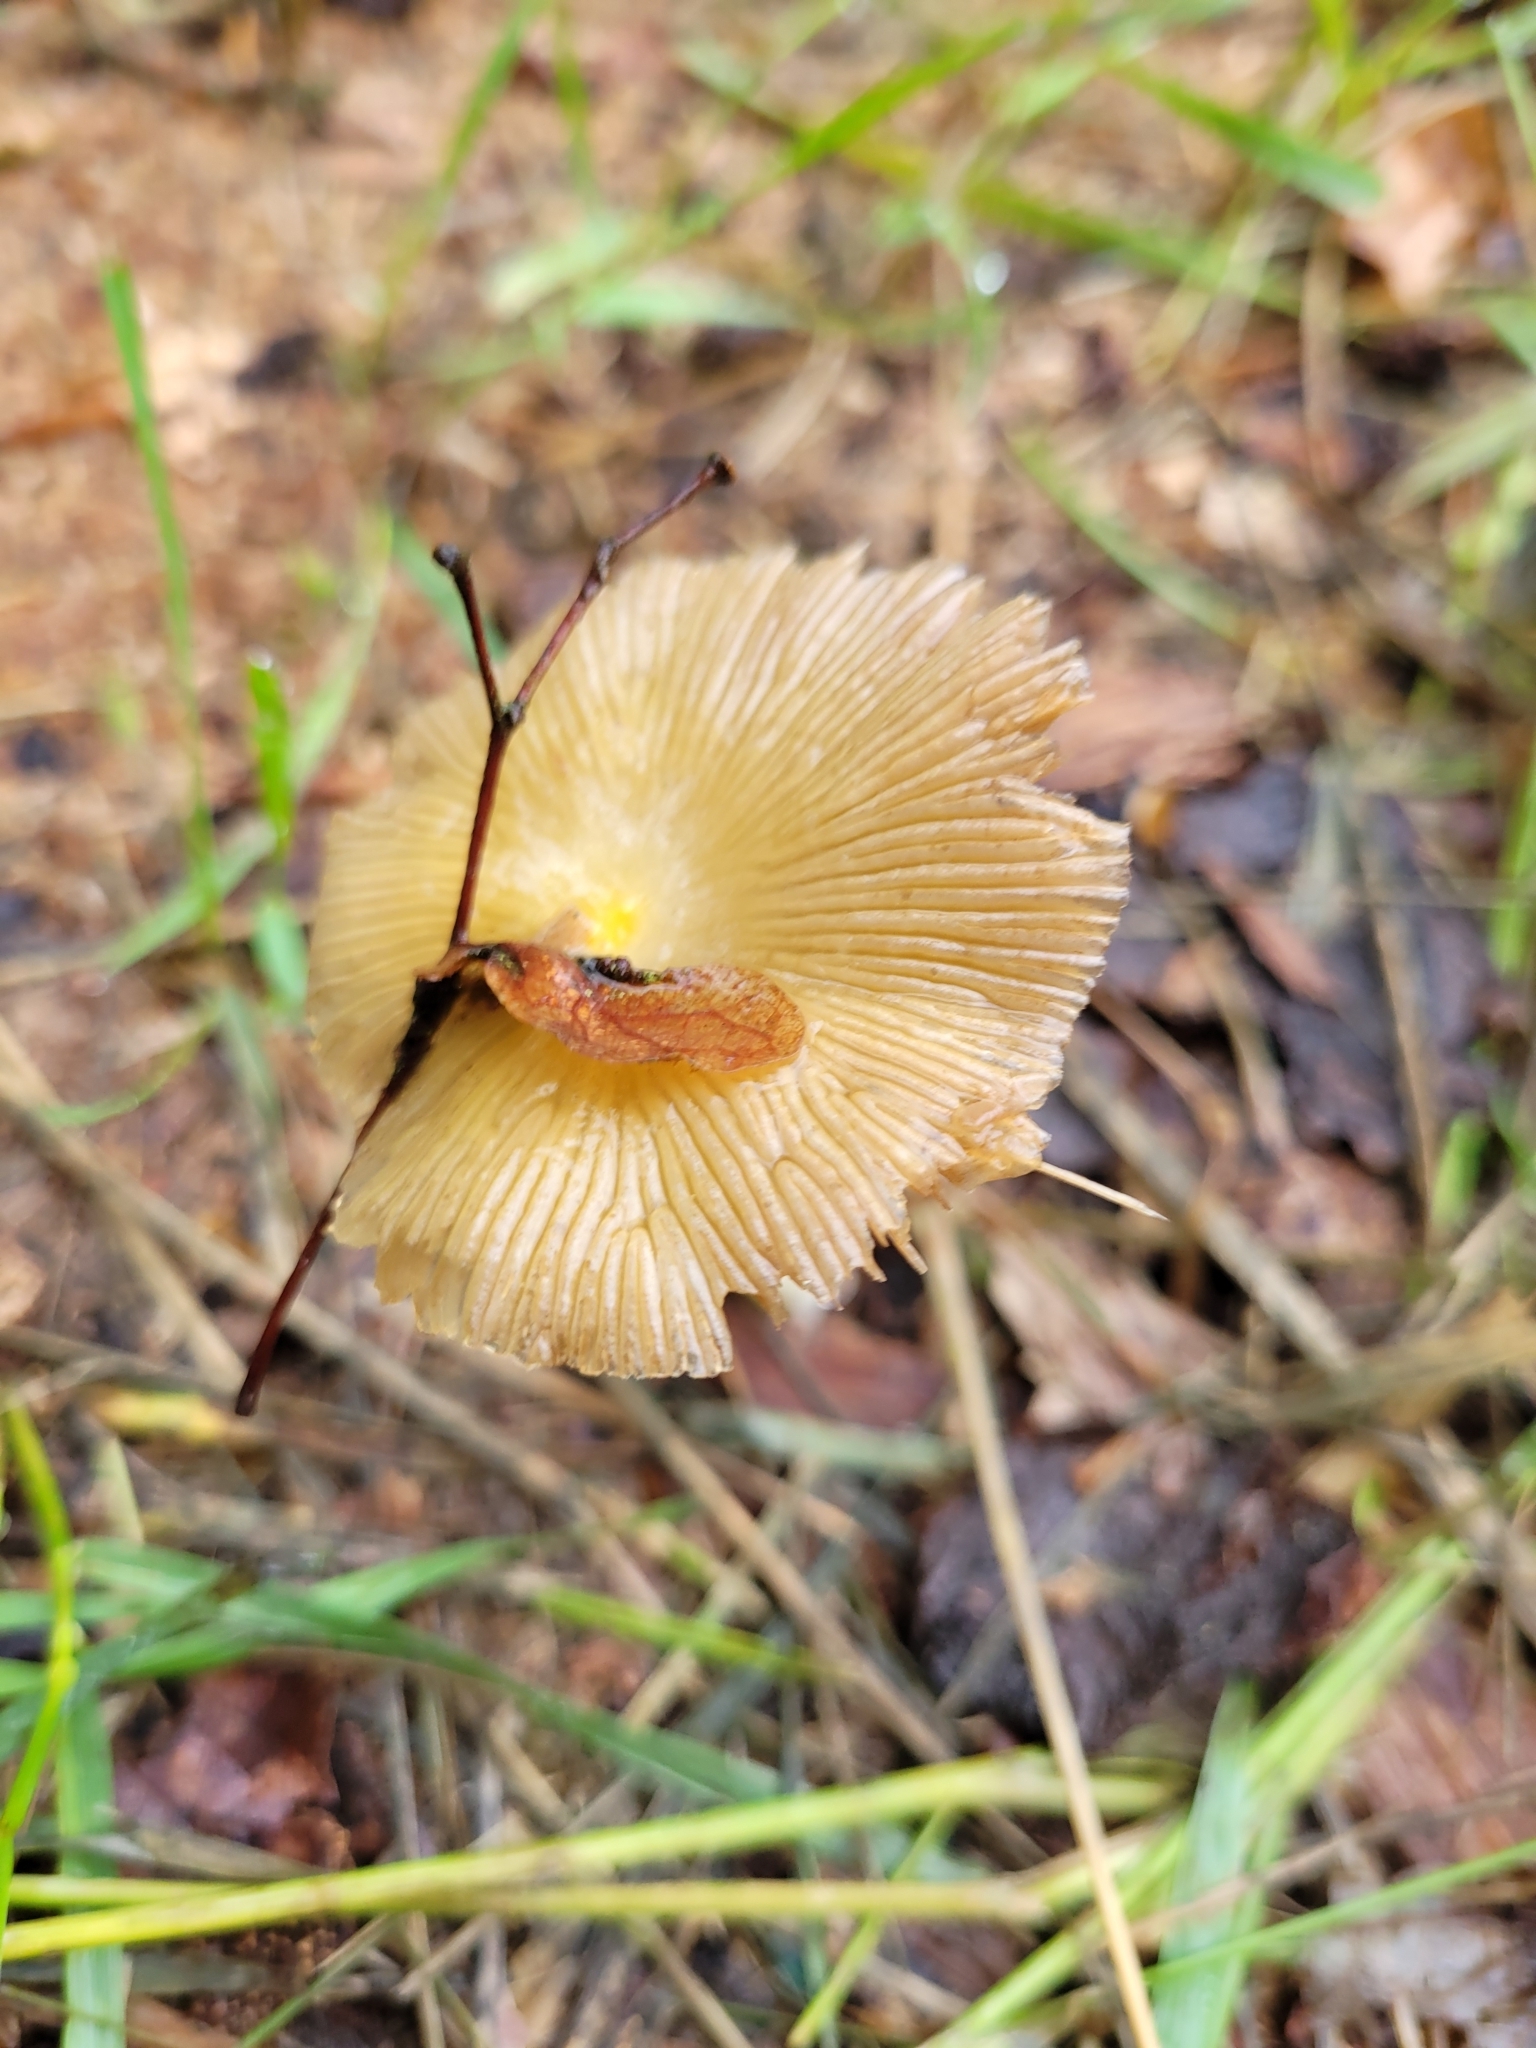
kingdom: Fungi
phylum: Basidiomycota
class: Agaricomycetes
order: Agaricales
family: Bolbitiaceae
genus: Bolbitius
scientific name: Bolbitius titubans
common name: Yellow fieldcap
